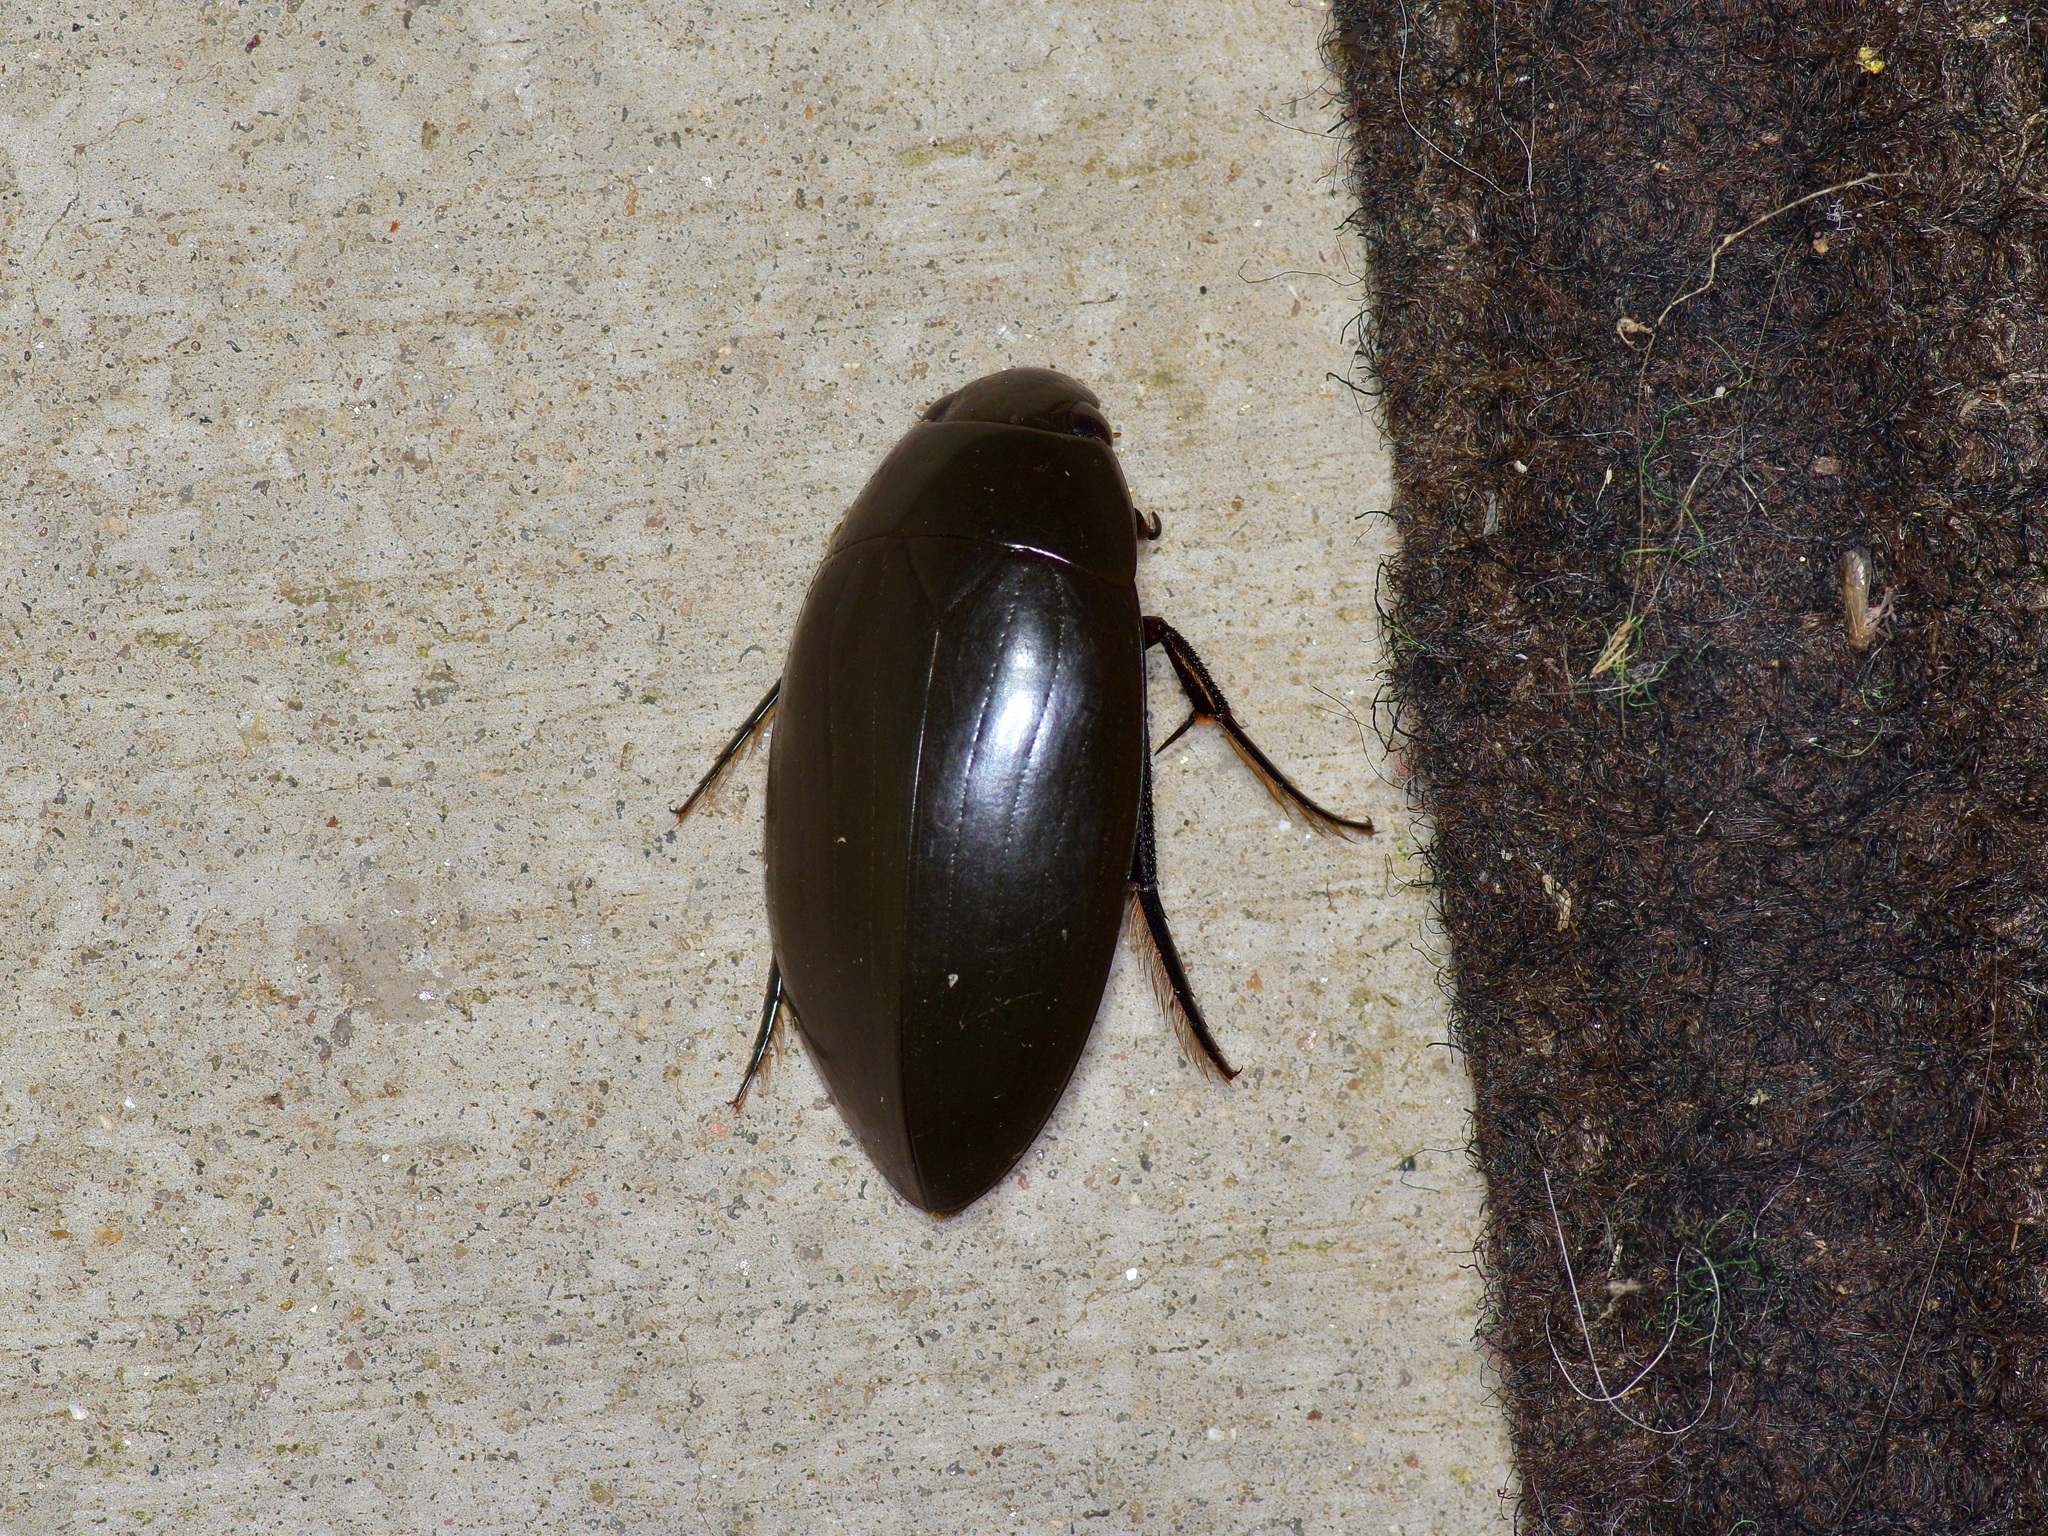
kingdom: Animalia
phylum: Arthropoda
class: Insecta
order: Coleoptera
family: Hydrophilidae
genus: Hydrophilus
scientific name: Hydrophilus triangularis
